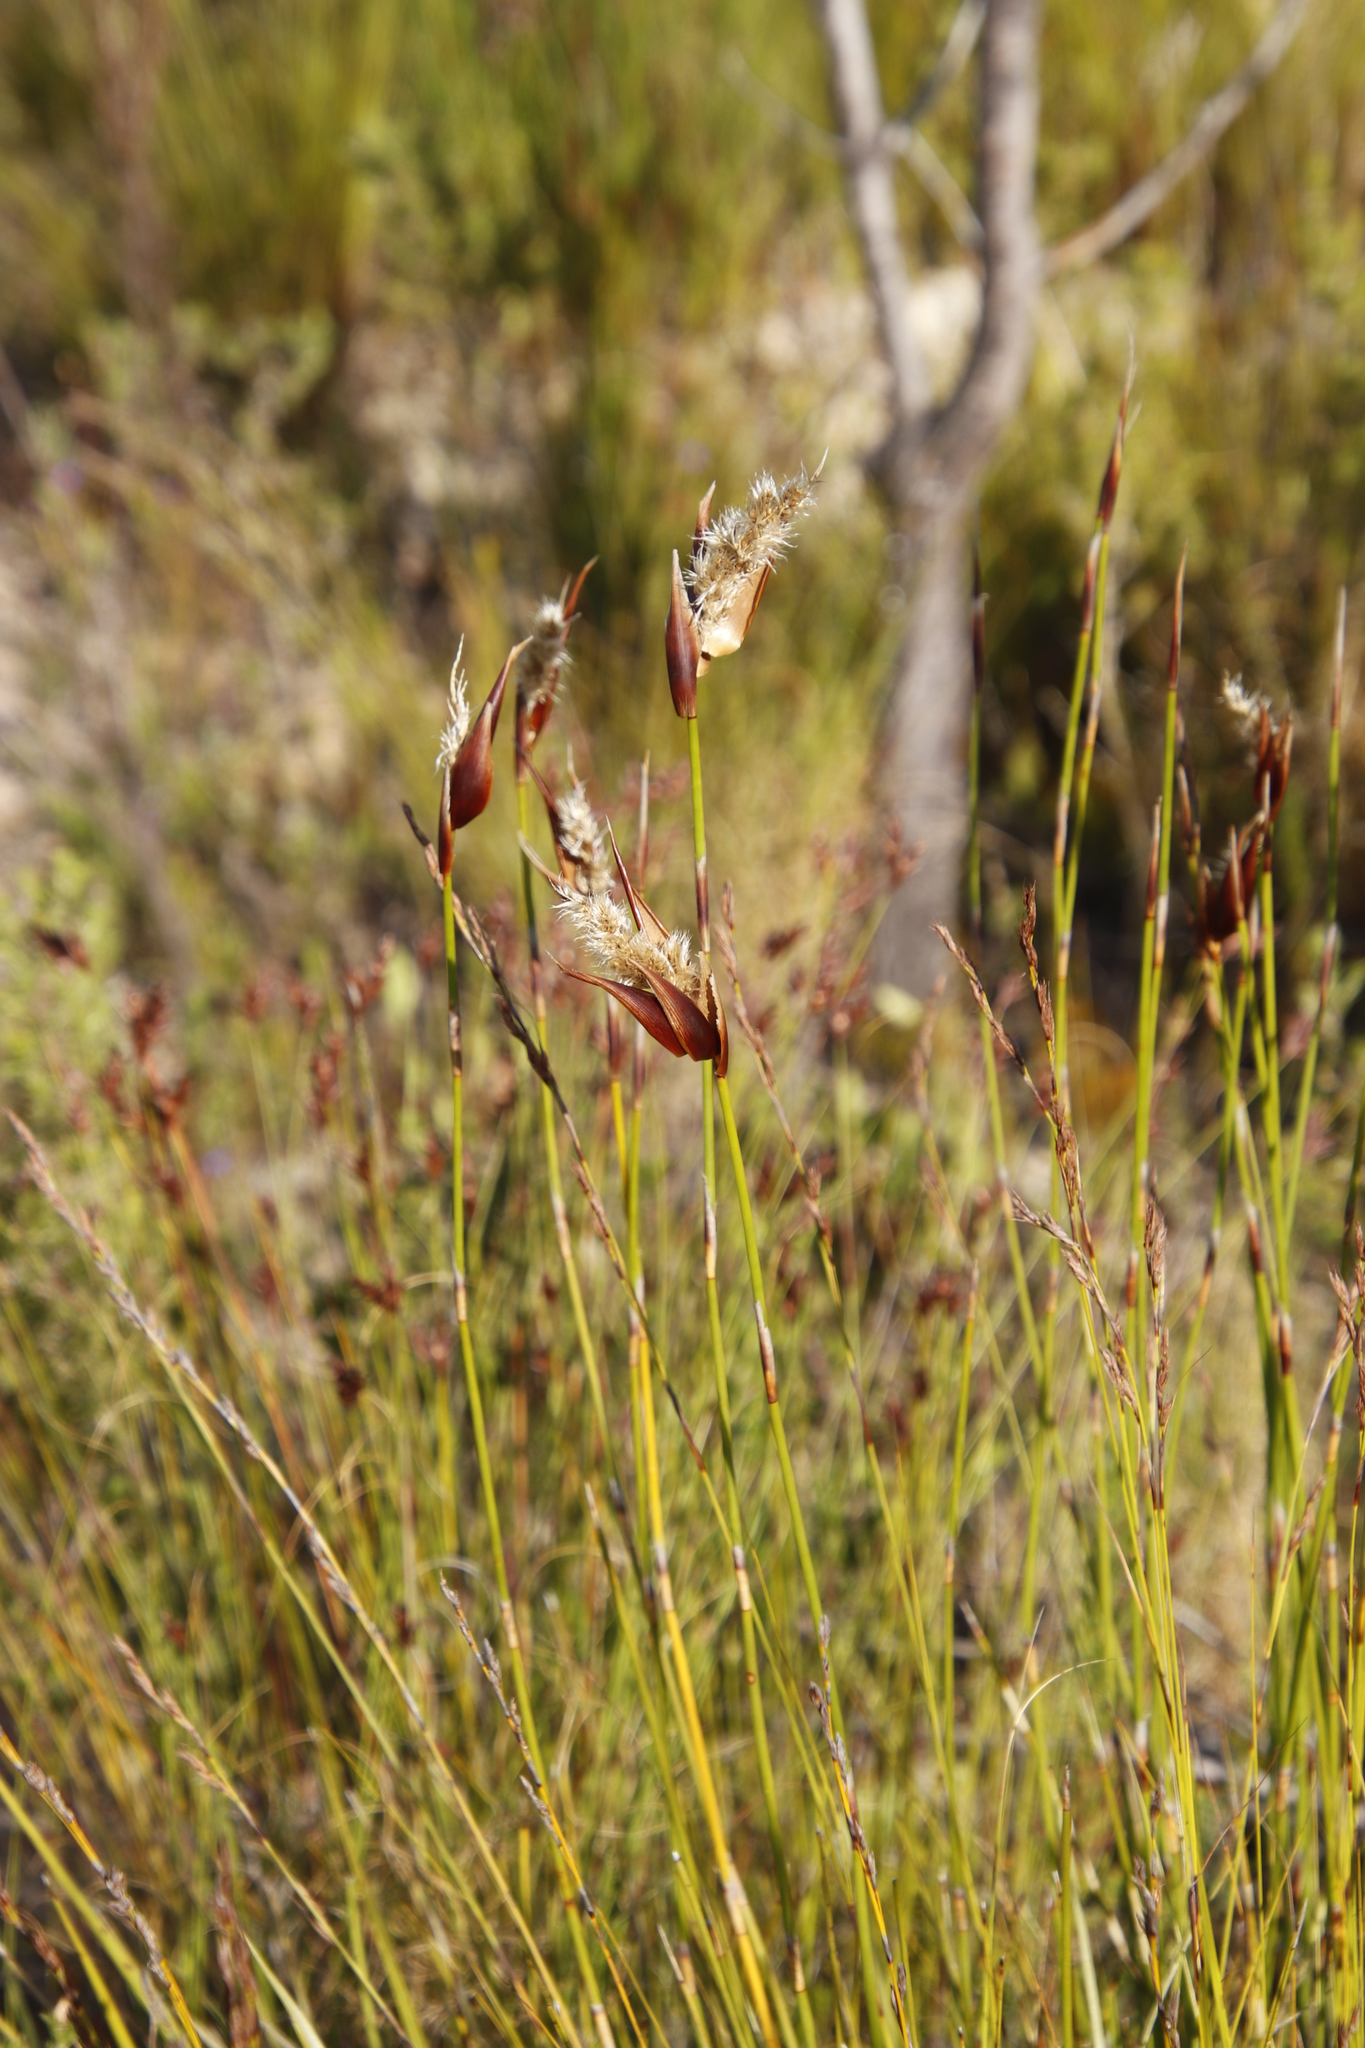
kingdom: Plantae
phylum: Tracheophyta
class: Liliopsida
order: Poales
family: Restionaceae
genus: Ceratocaryum
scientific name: Ceratocaryum decipiens
